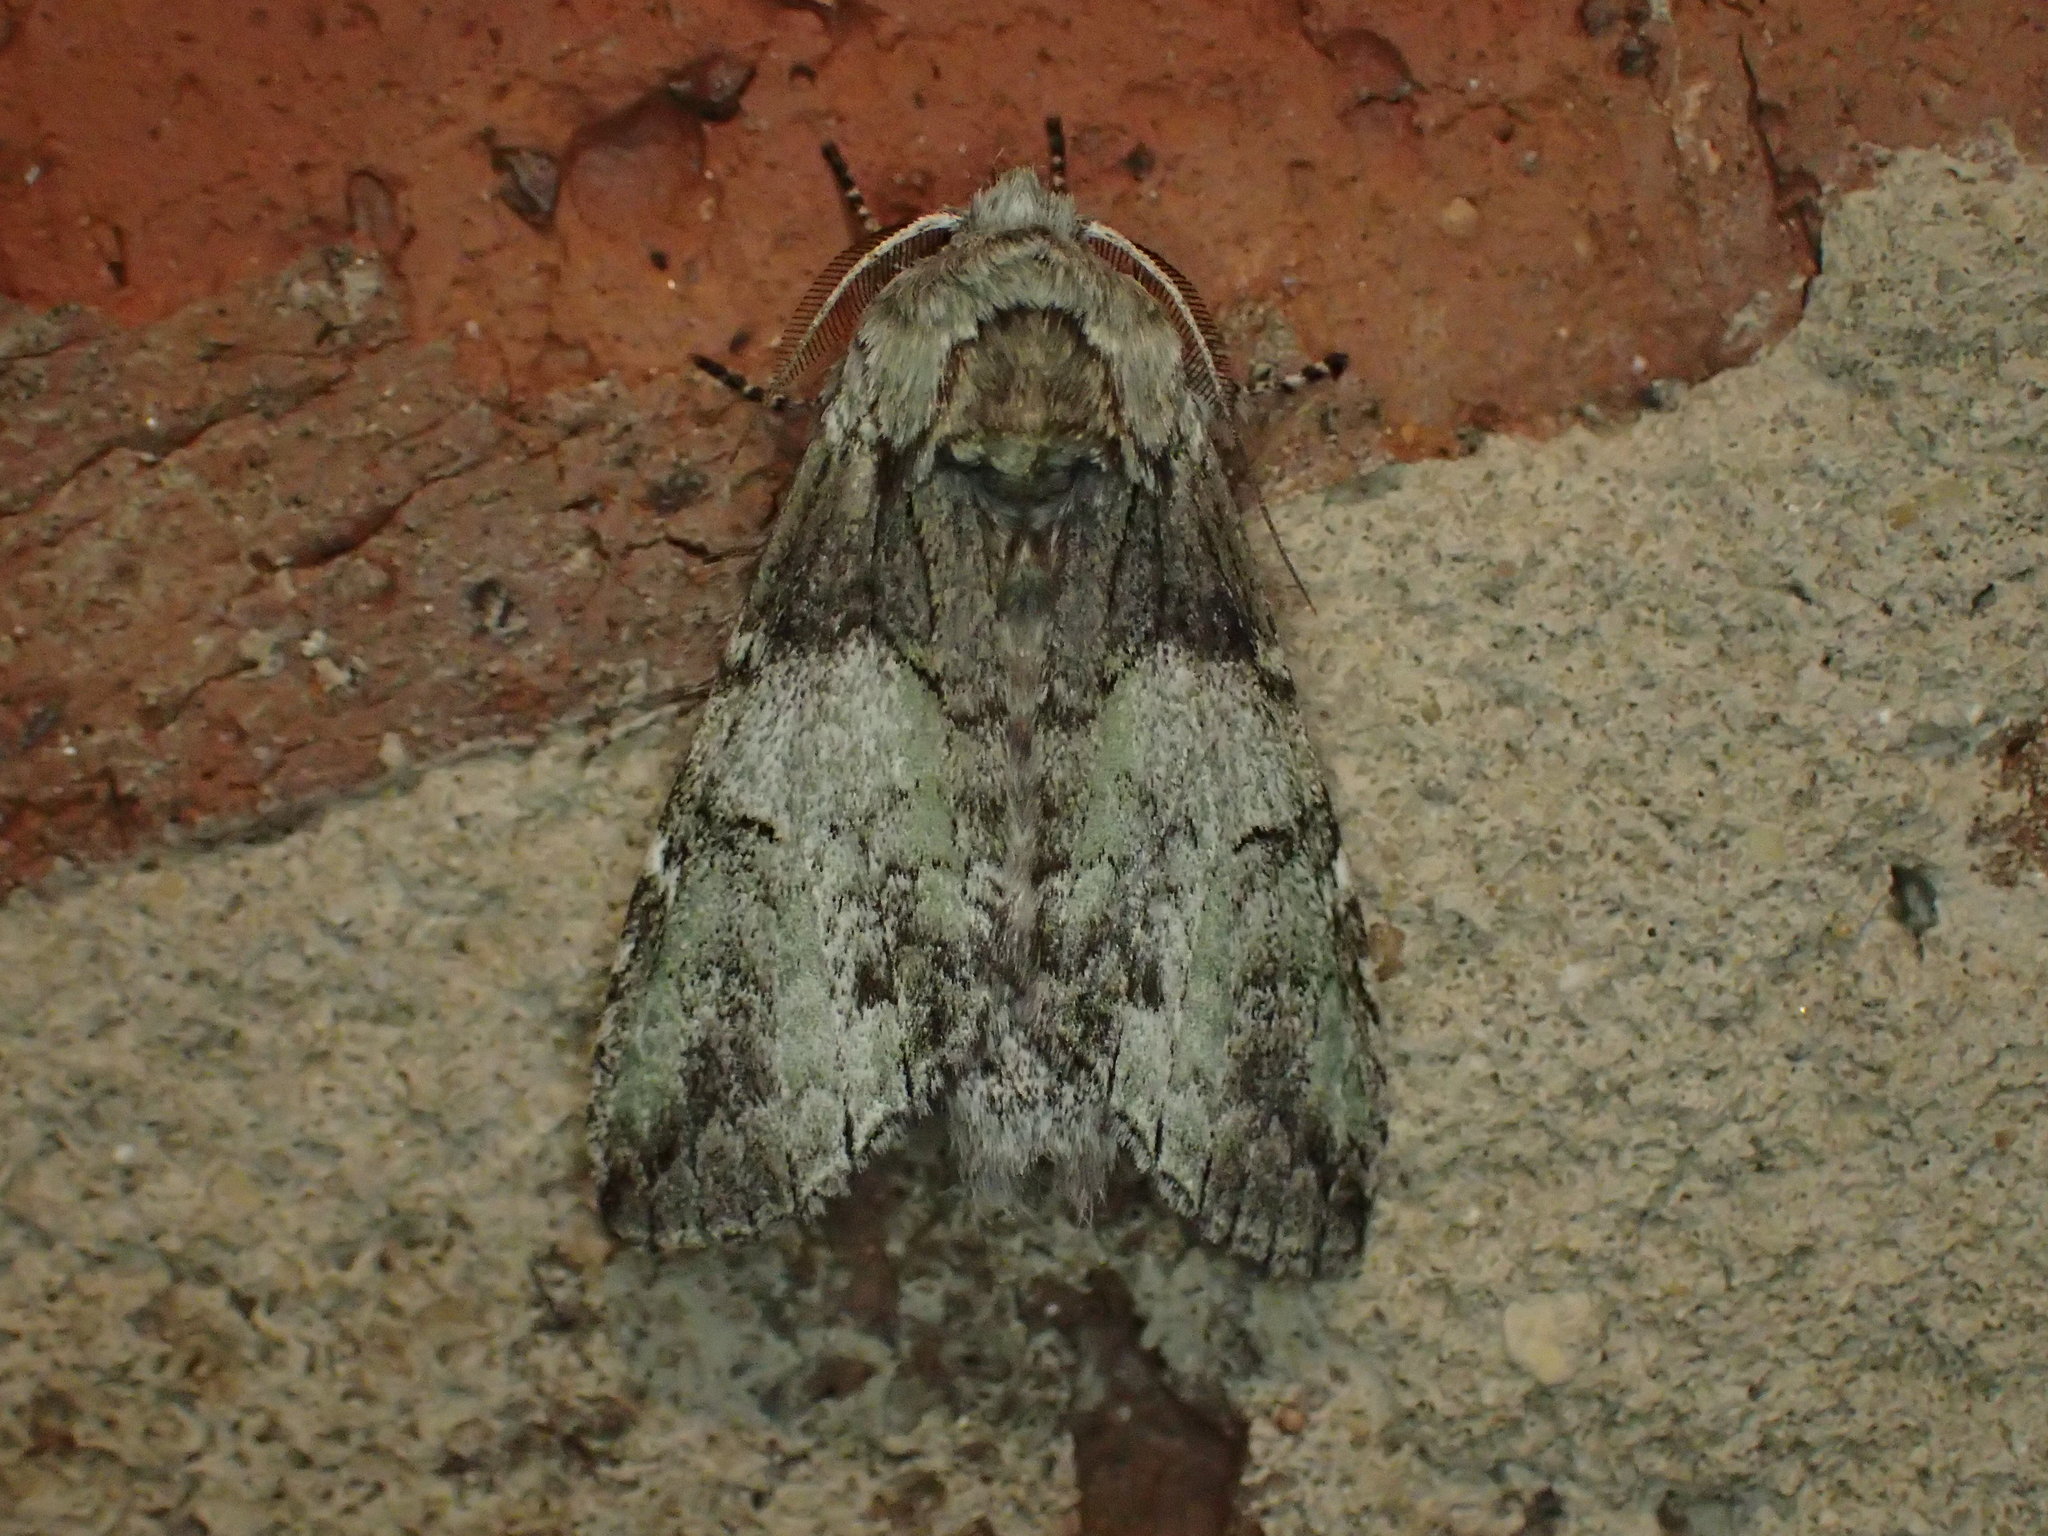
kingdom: Animalia
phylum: Arthropoda
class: Insecta
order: Lepidoptera
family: Notodontidae
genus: Macrurocampa
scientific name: Macrurocampa marthesia
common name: Mottled prominent
